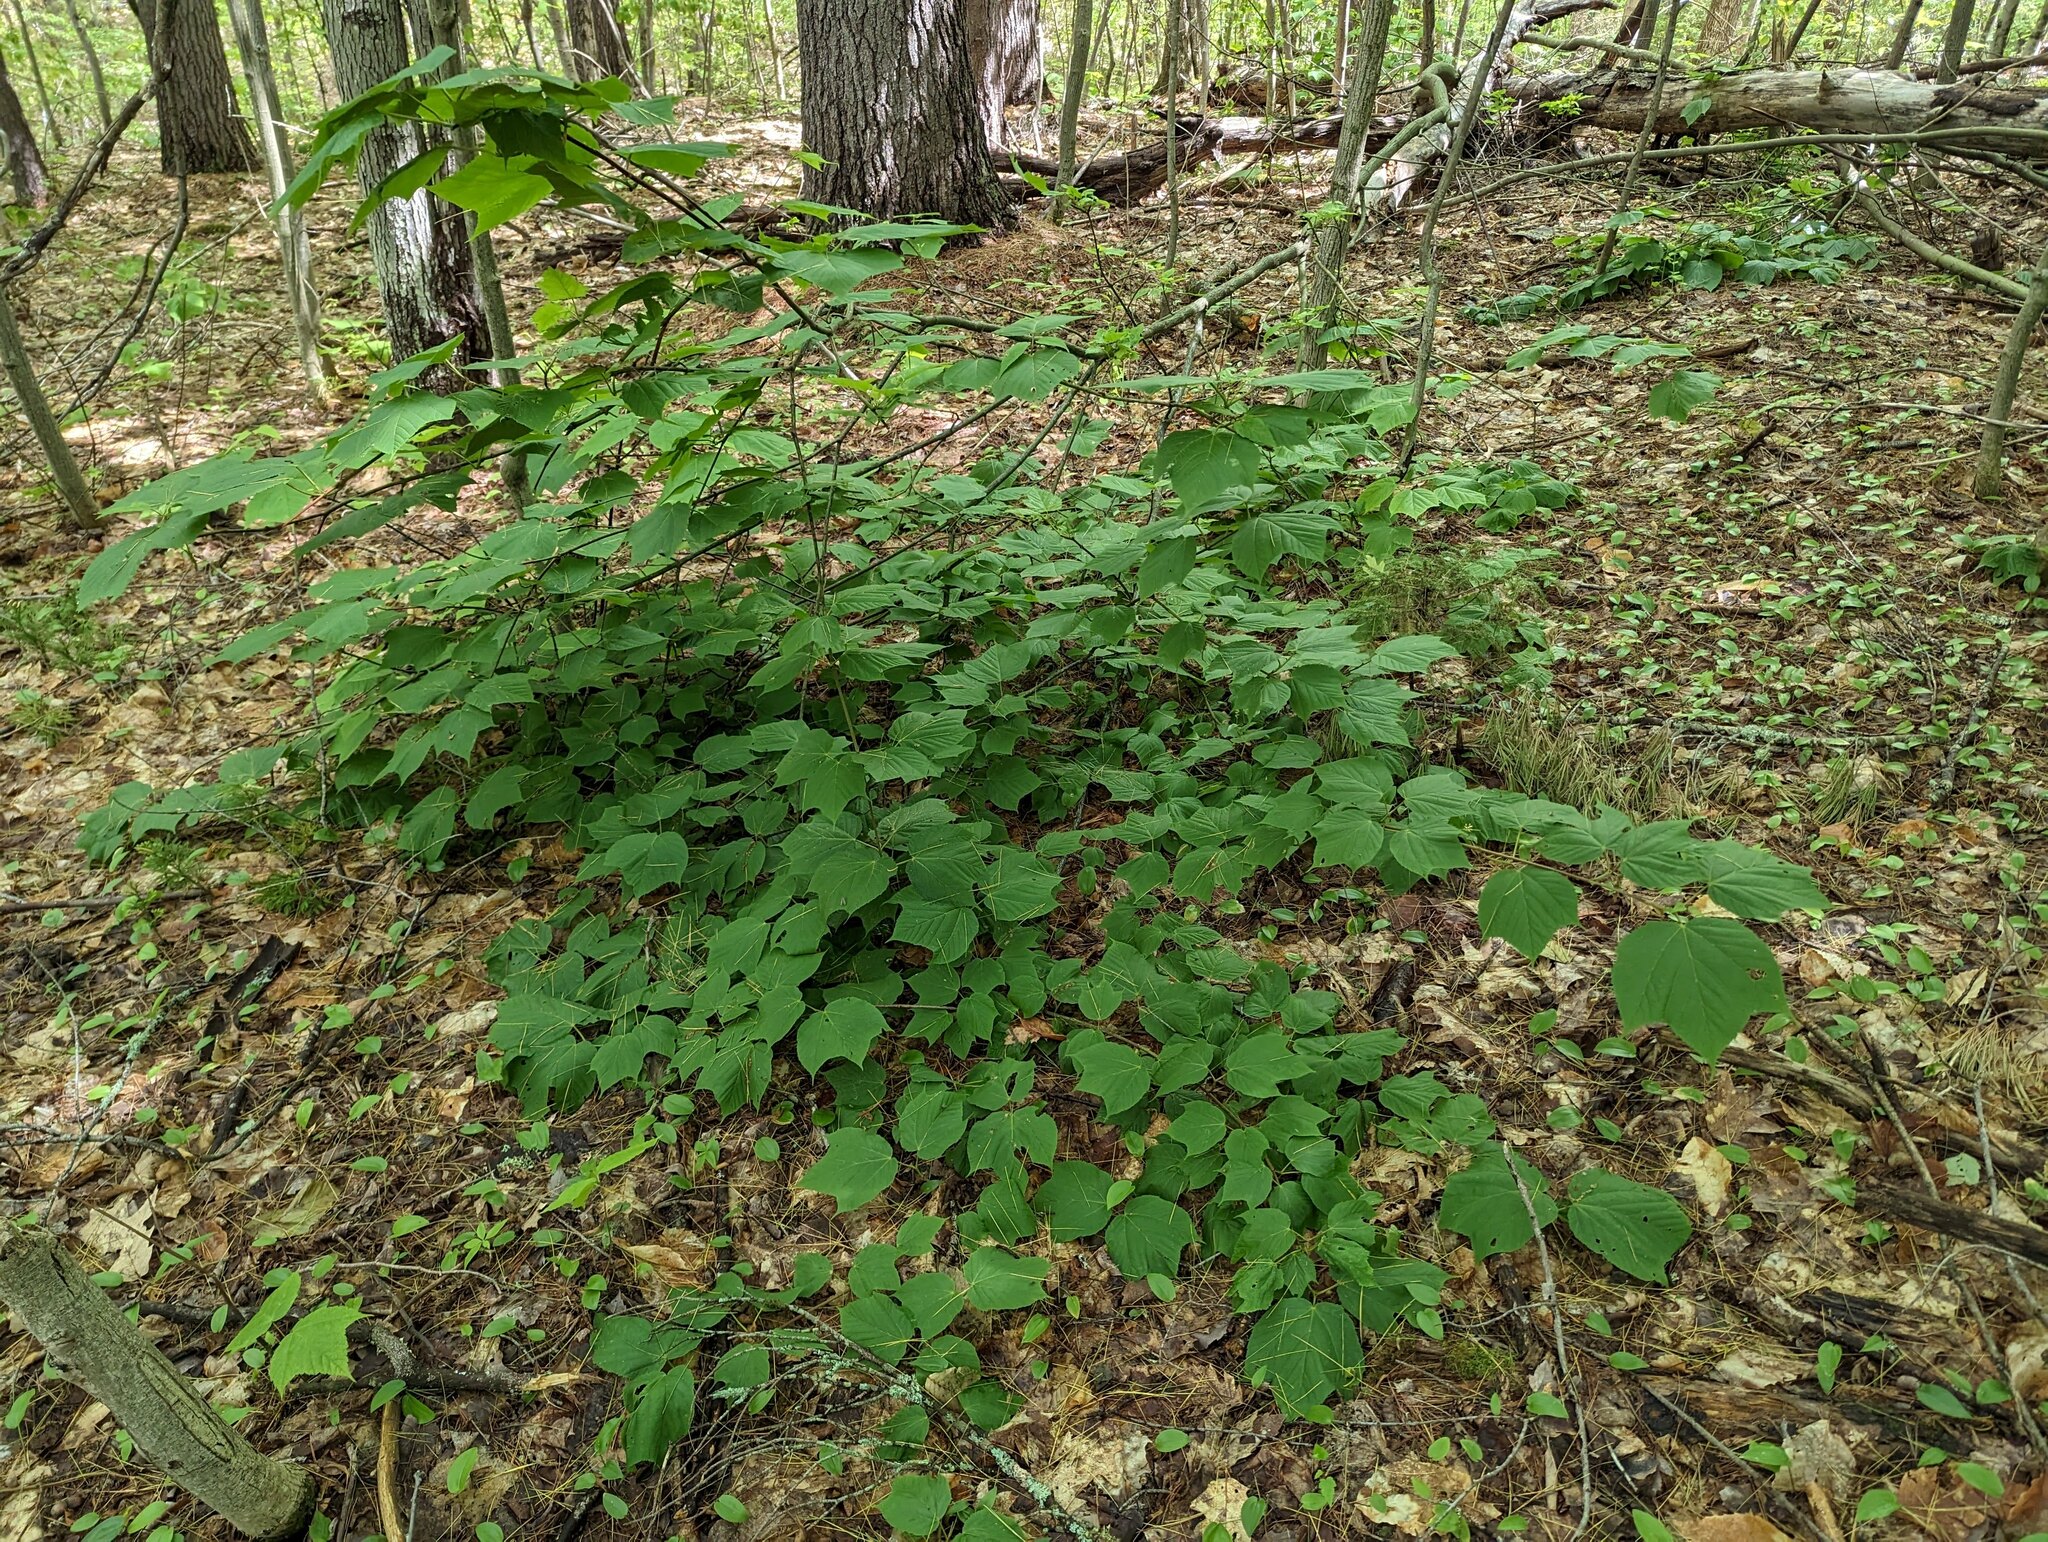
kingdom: Plantae
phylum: Tracheophyta
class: Magnoliopsida
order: Sapindales
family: Sapindaceae
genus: Acer
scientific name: Acer pensylvanicum
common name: Moosewood
